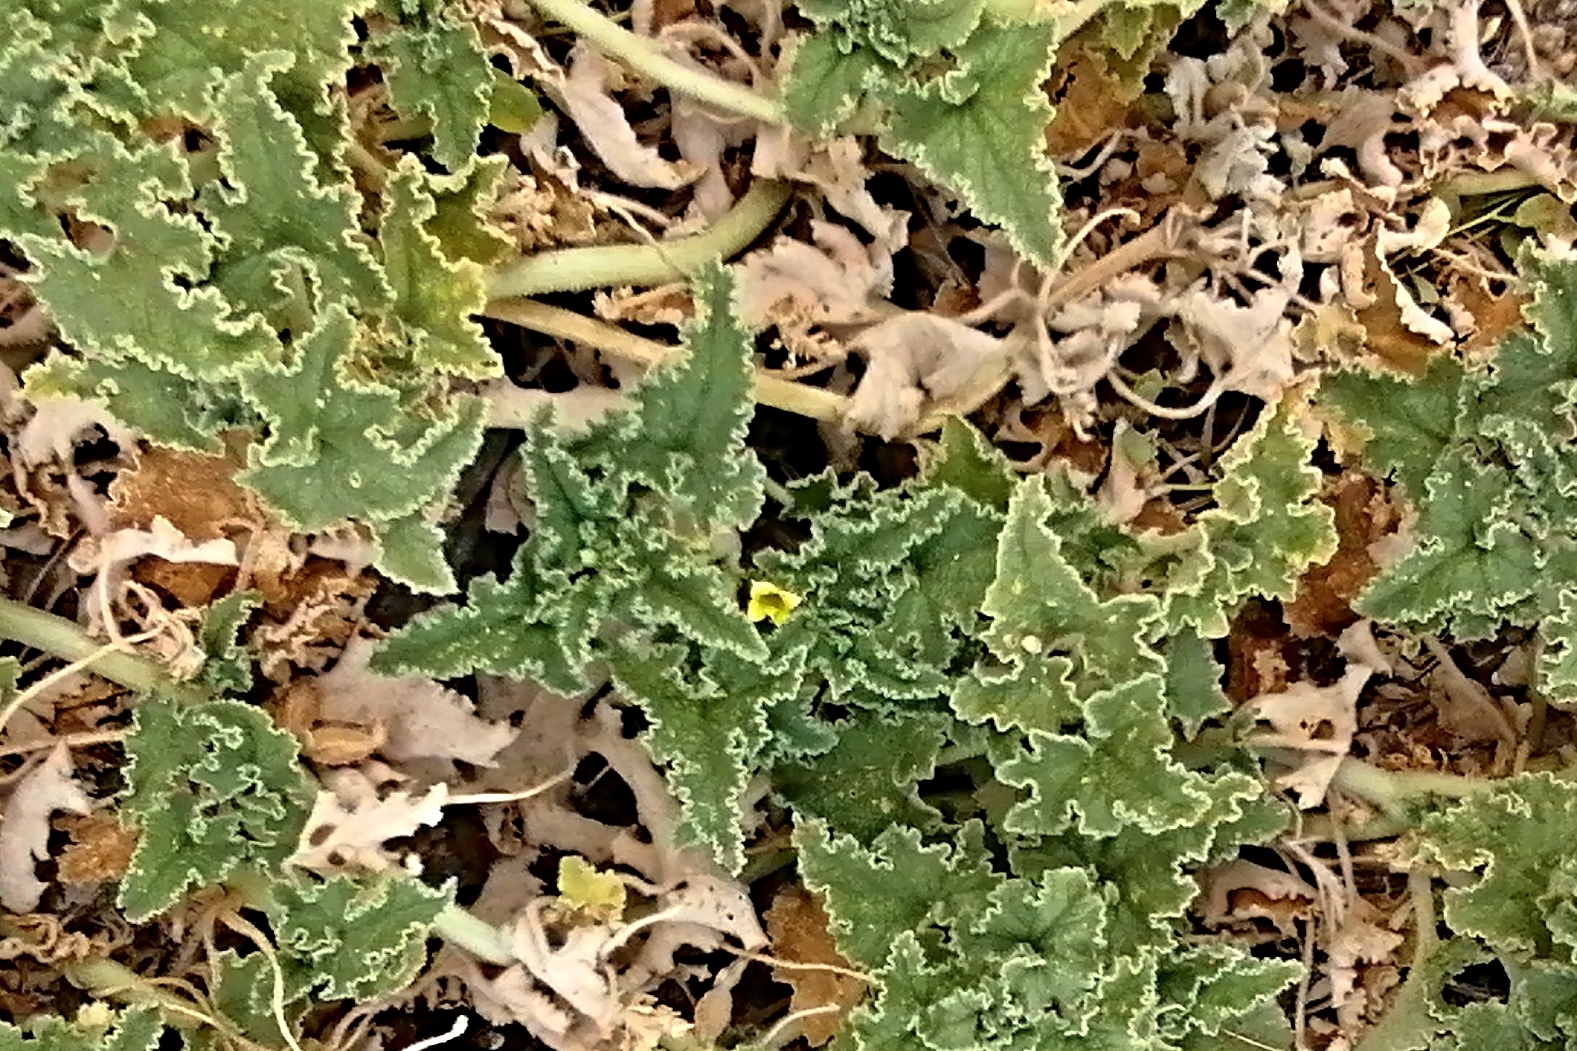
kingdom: Plantae
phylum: Tracheophyta
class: Magnoliopsida
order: Cucurbitales
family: Cucurbitaceae
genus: Ecballium
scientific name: Ecballium elaterium
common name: Squirting cucumber
